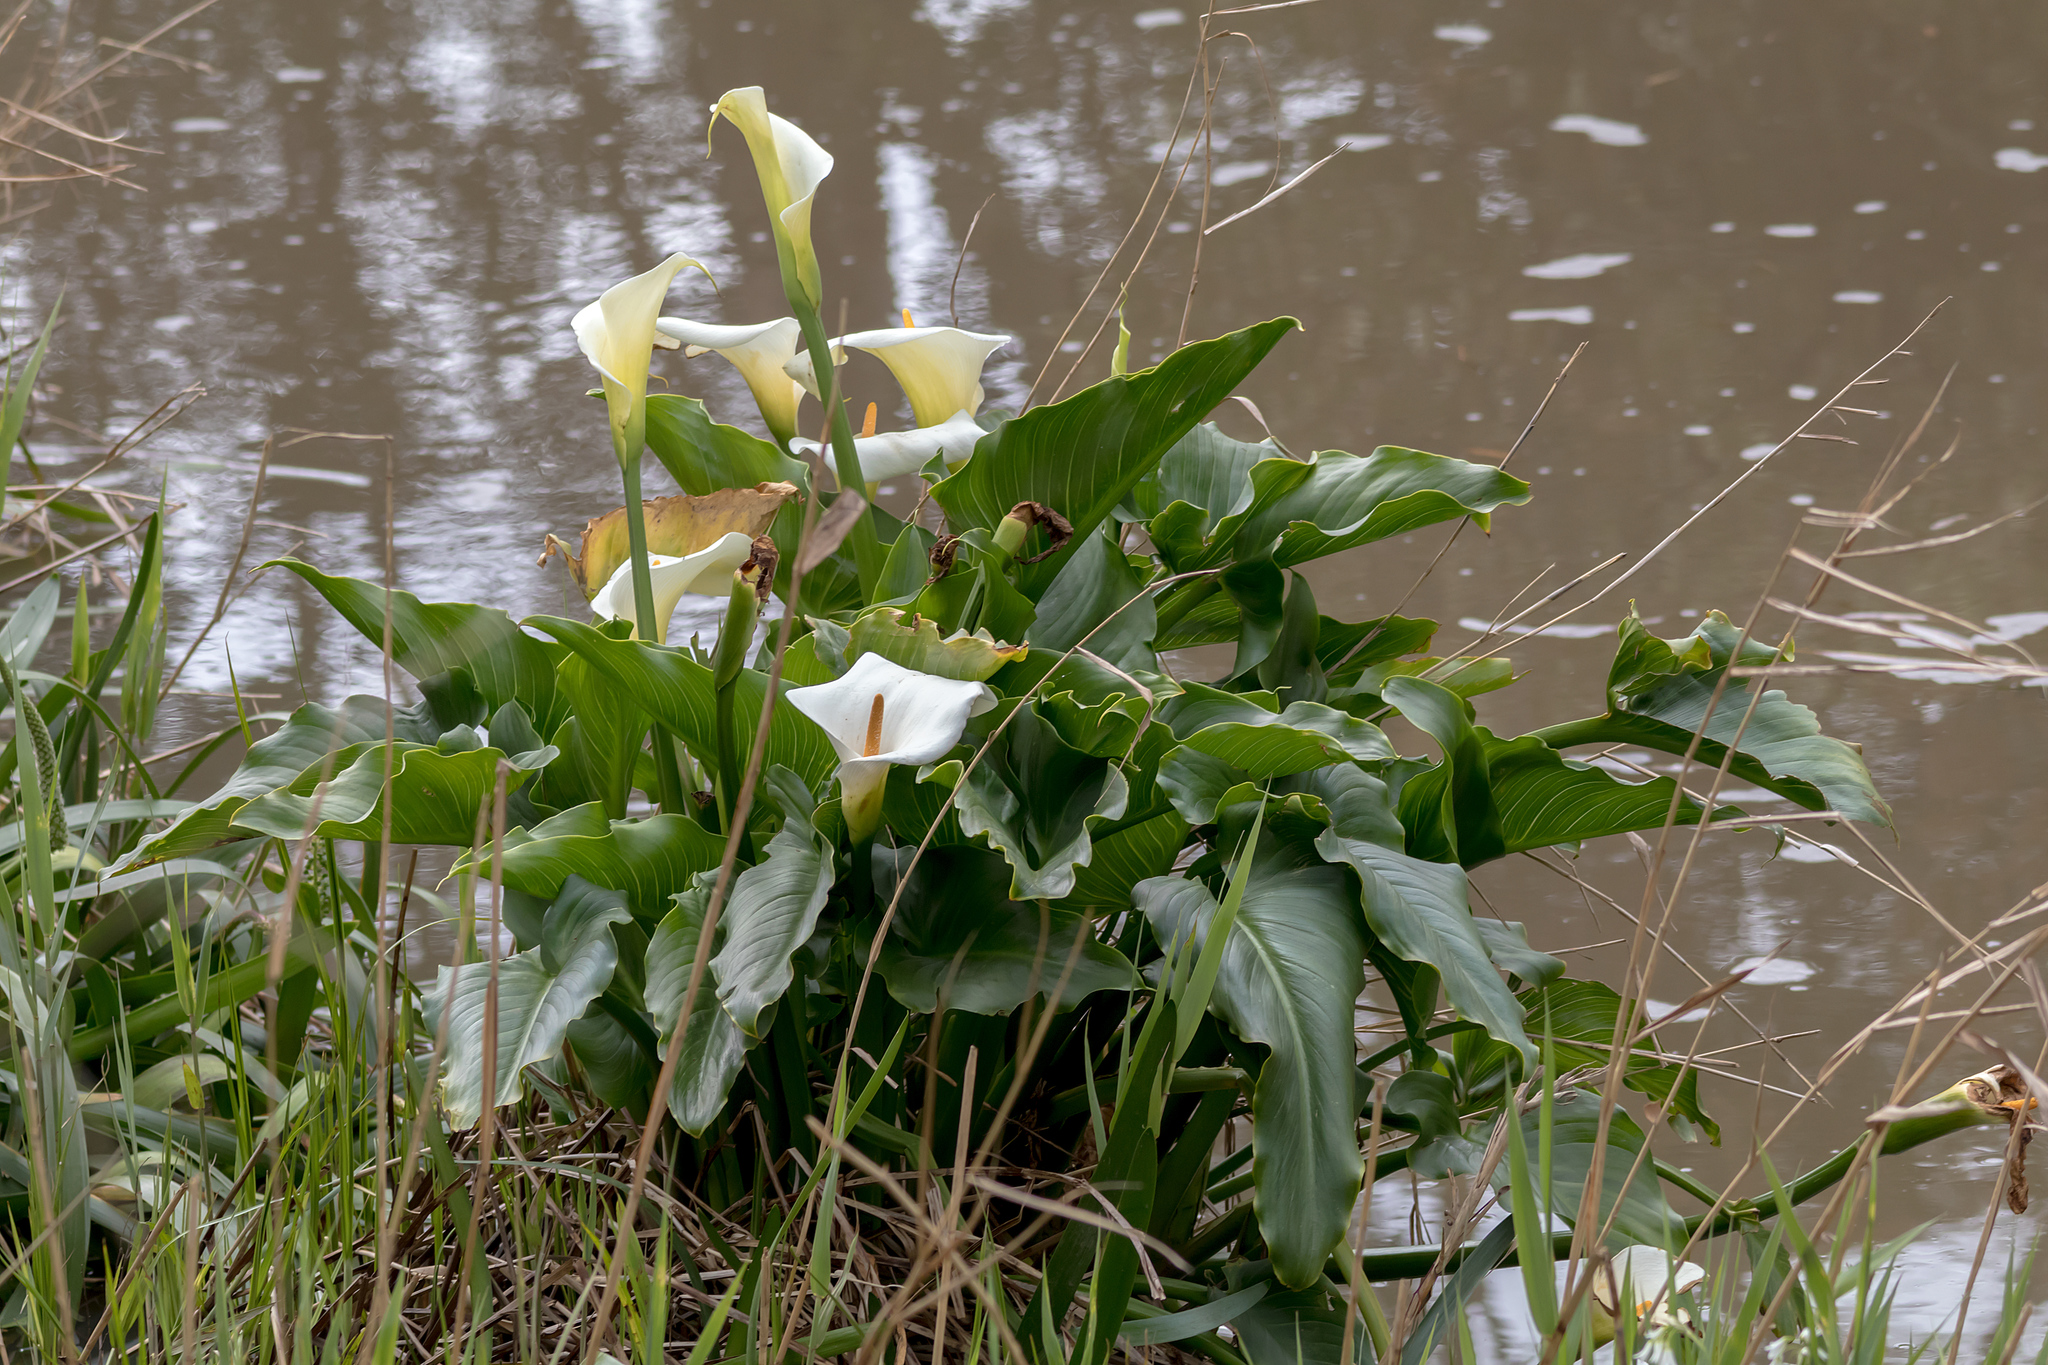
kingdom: Plantae
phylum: Tracheophyta
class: Liliopsida
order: Alismatales
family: Araceae
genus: Zantedeschia
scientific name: Zantedeschia aethiopica
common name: Altar-lily
